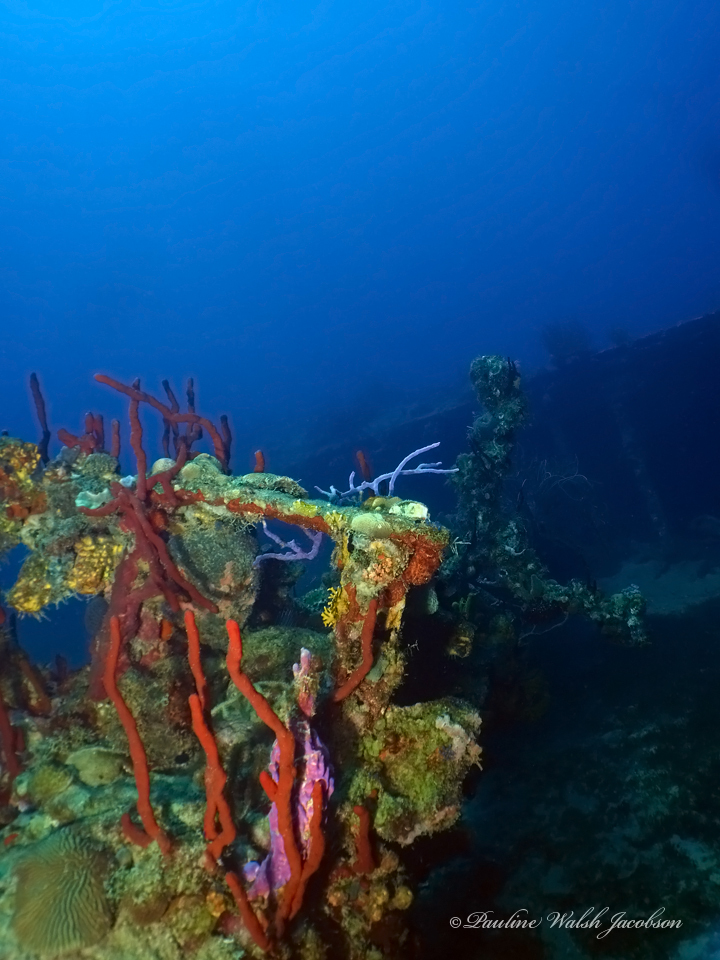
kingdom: Animalia
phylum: Porifera
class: Demospongiae
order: Verongiida
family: Aplysinidae
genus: Aplysina
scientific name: Aplysina cauliformis
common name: Branching candle sponge
